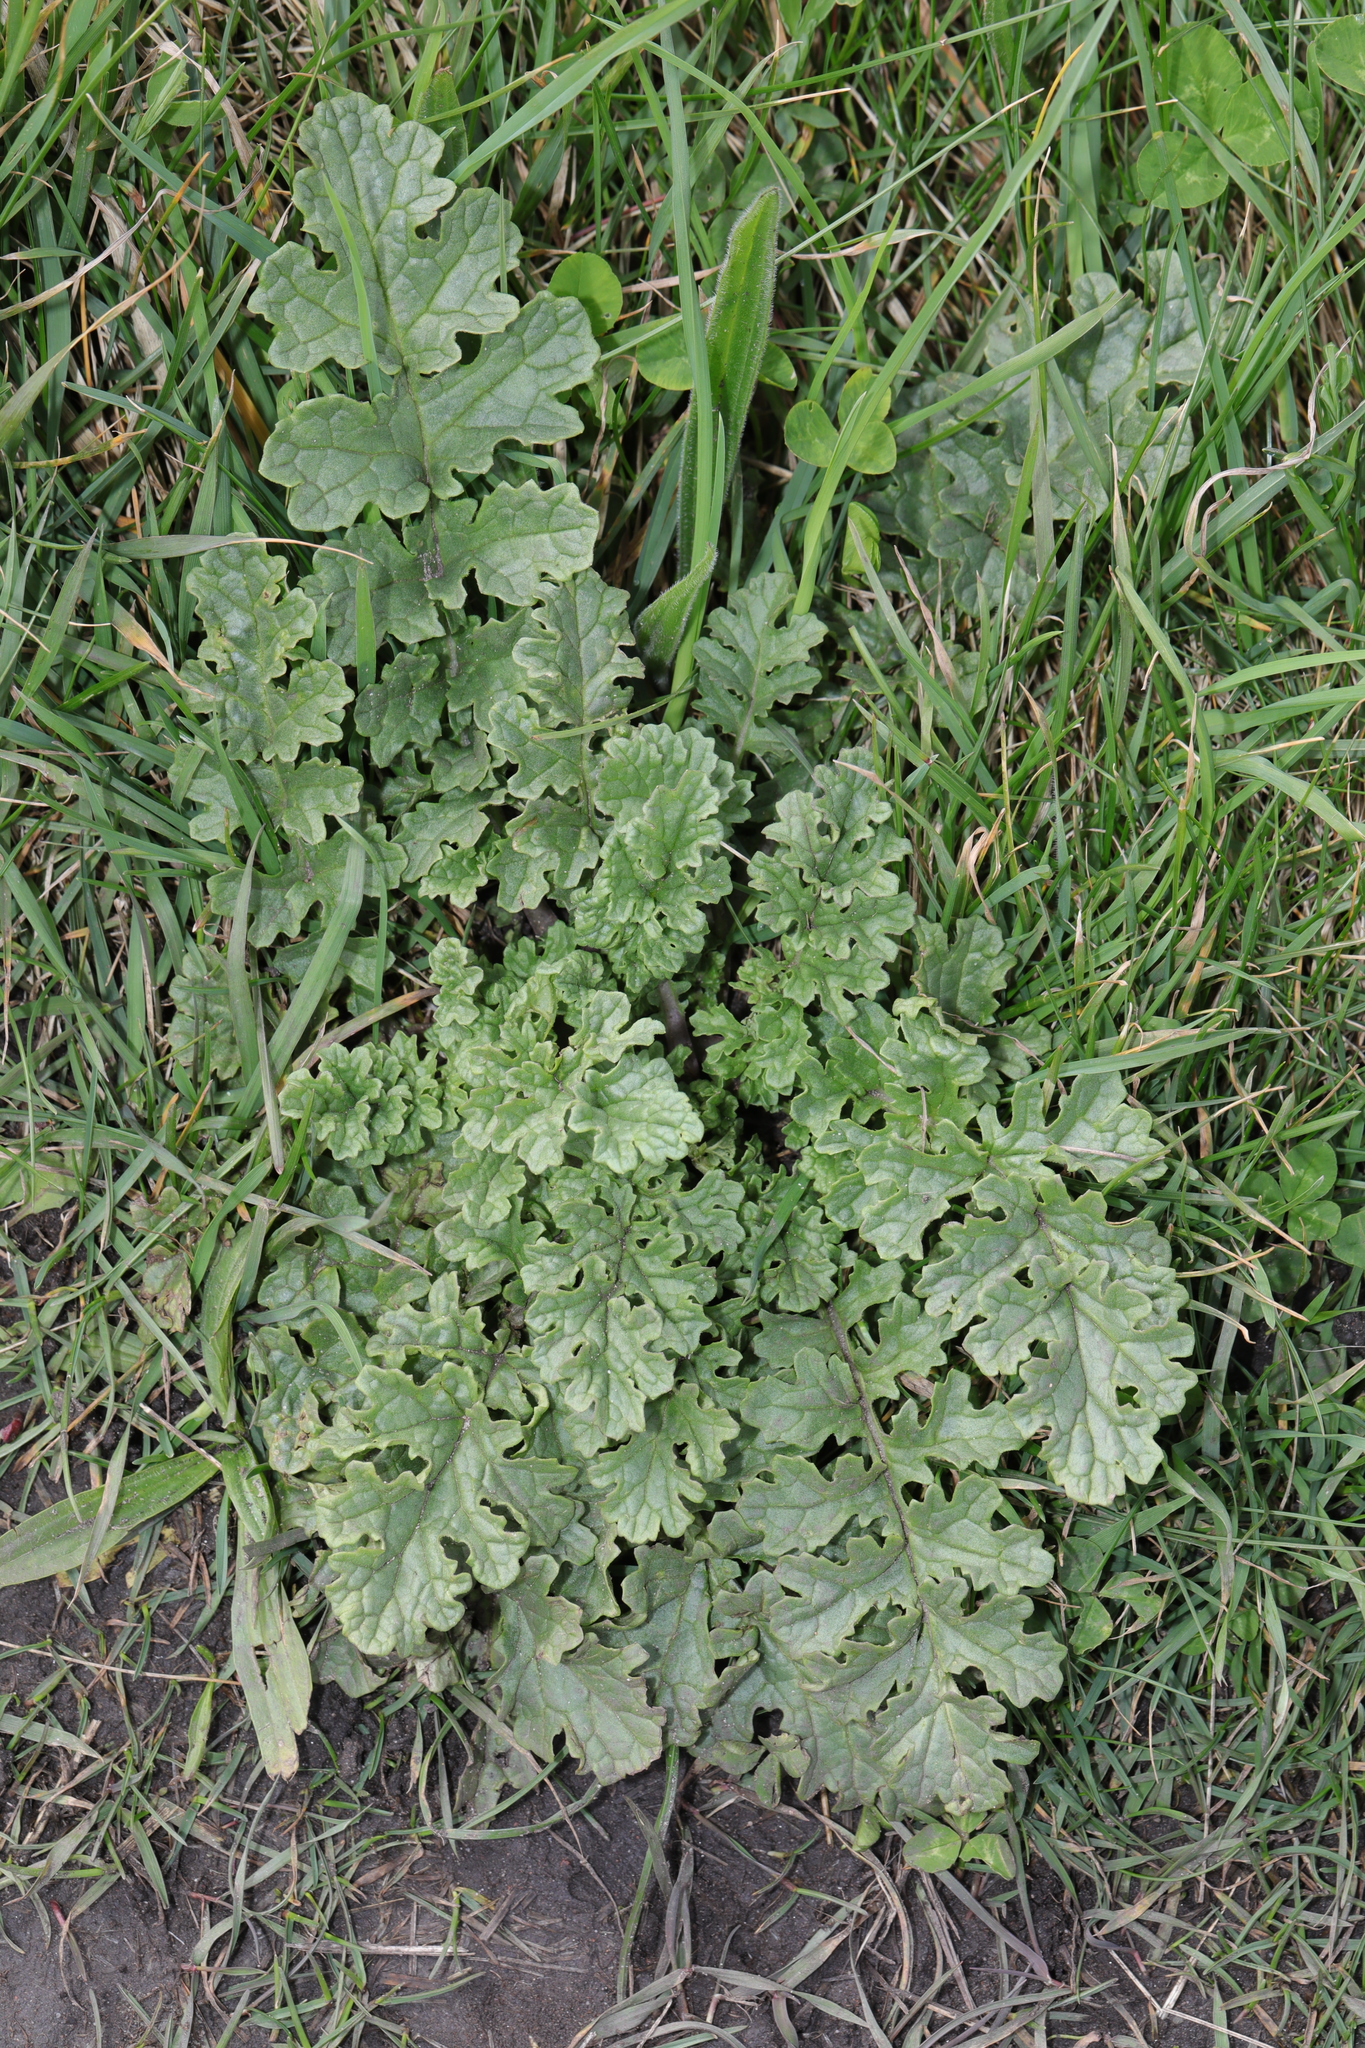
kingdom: Plantae
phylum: Tracheophyta
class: Magnoliopsida
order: Asterales
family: Asteraceae
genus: Jacobaea
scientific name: Jacobaea vulgaris
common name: Stinking willie
